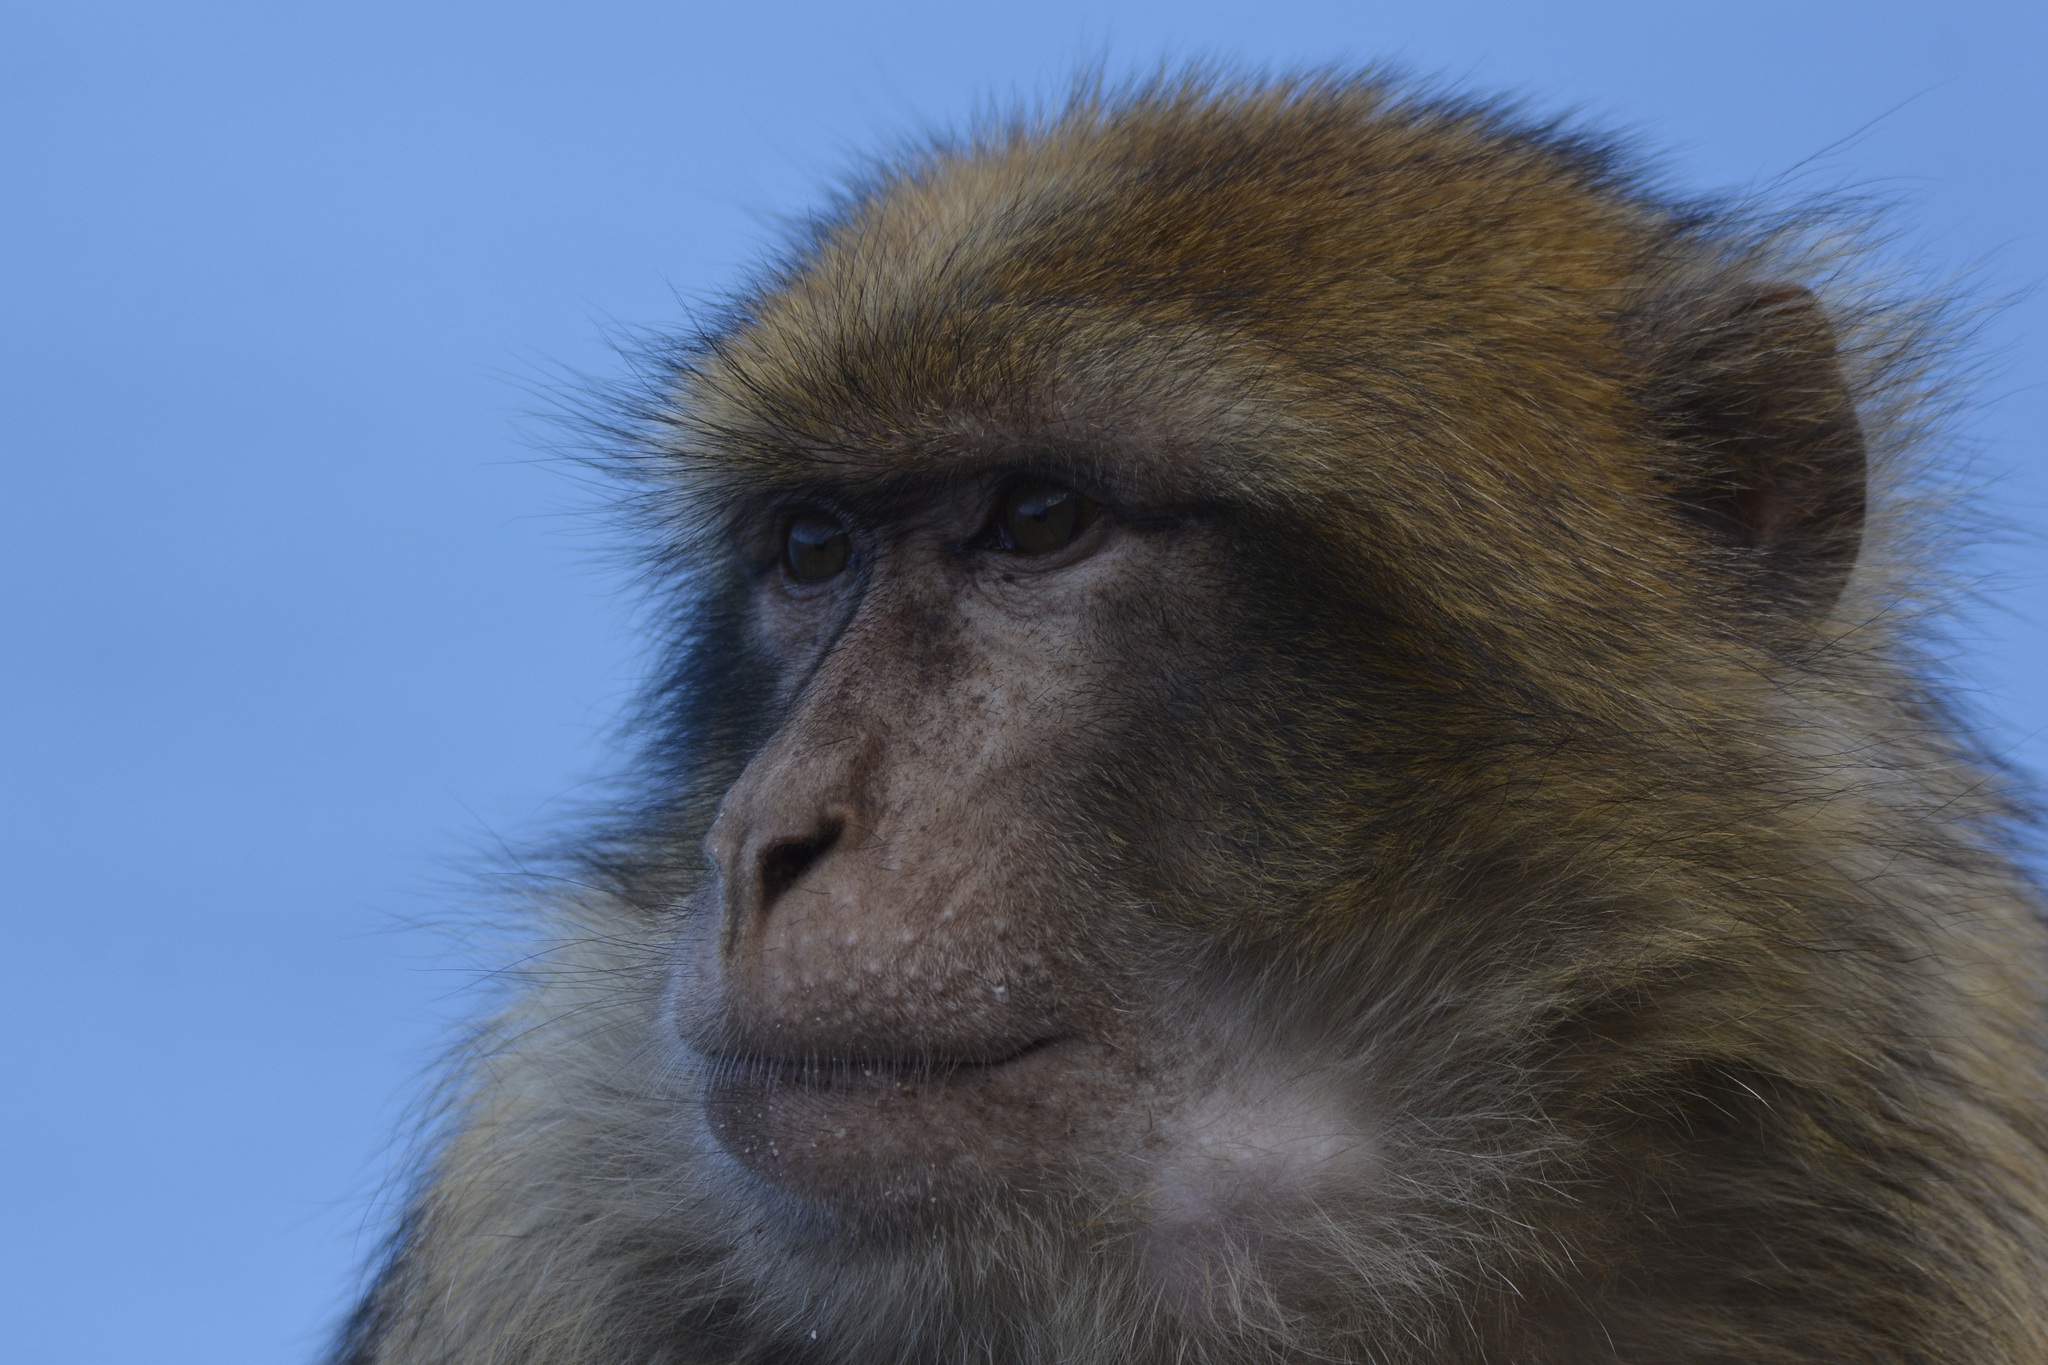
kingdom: Animalia
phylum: Chordata
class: Mammalia
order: Primates
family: Cercopithecidae
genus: Macaca
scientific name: Macaca sylvanus
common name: Barbary macaque
